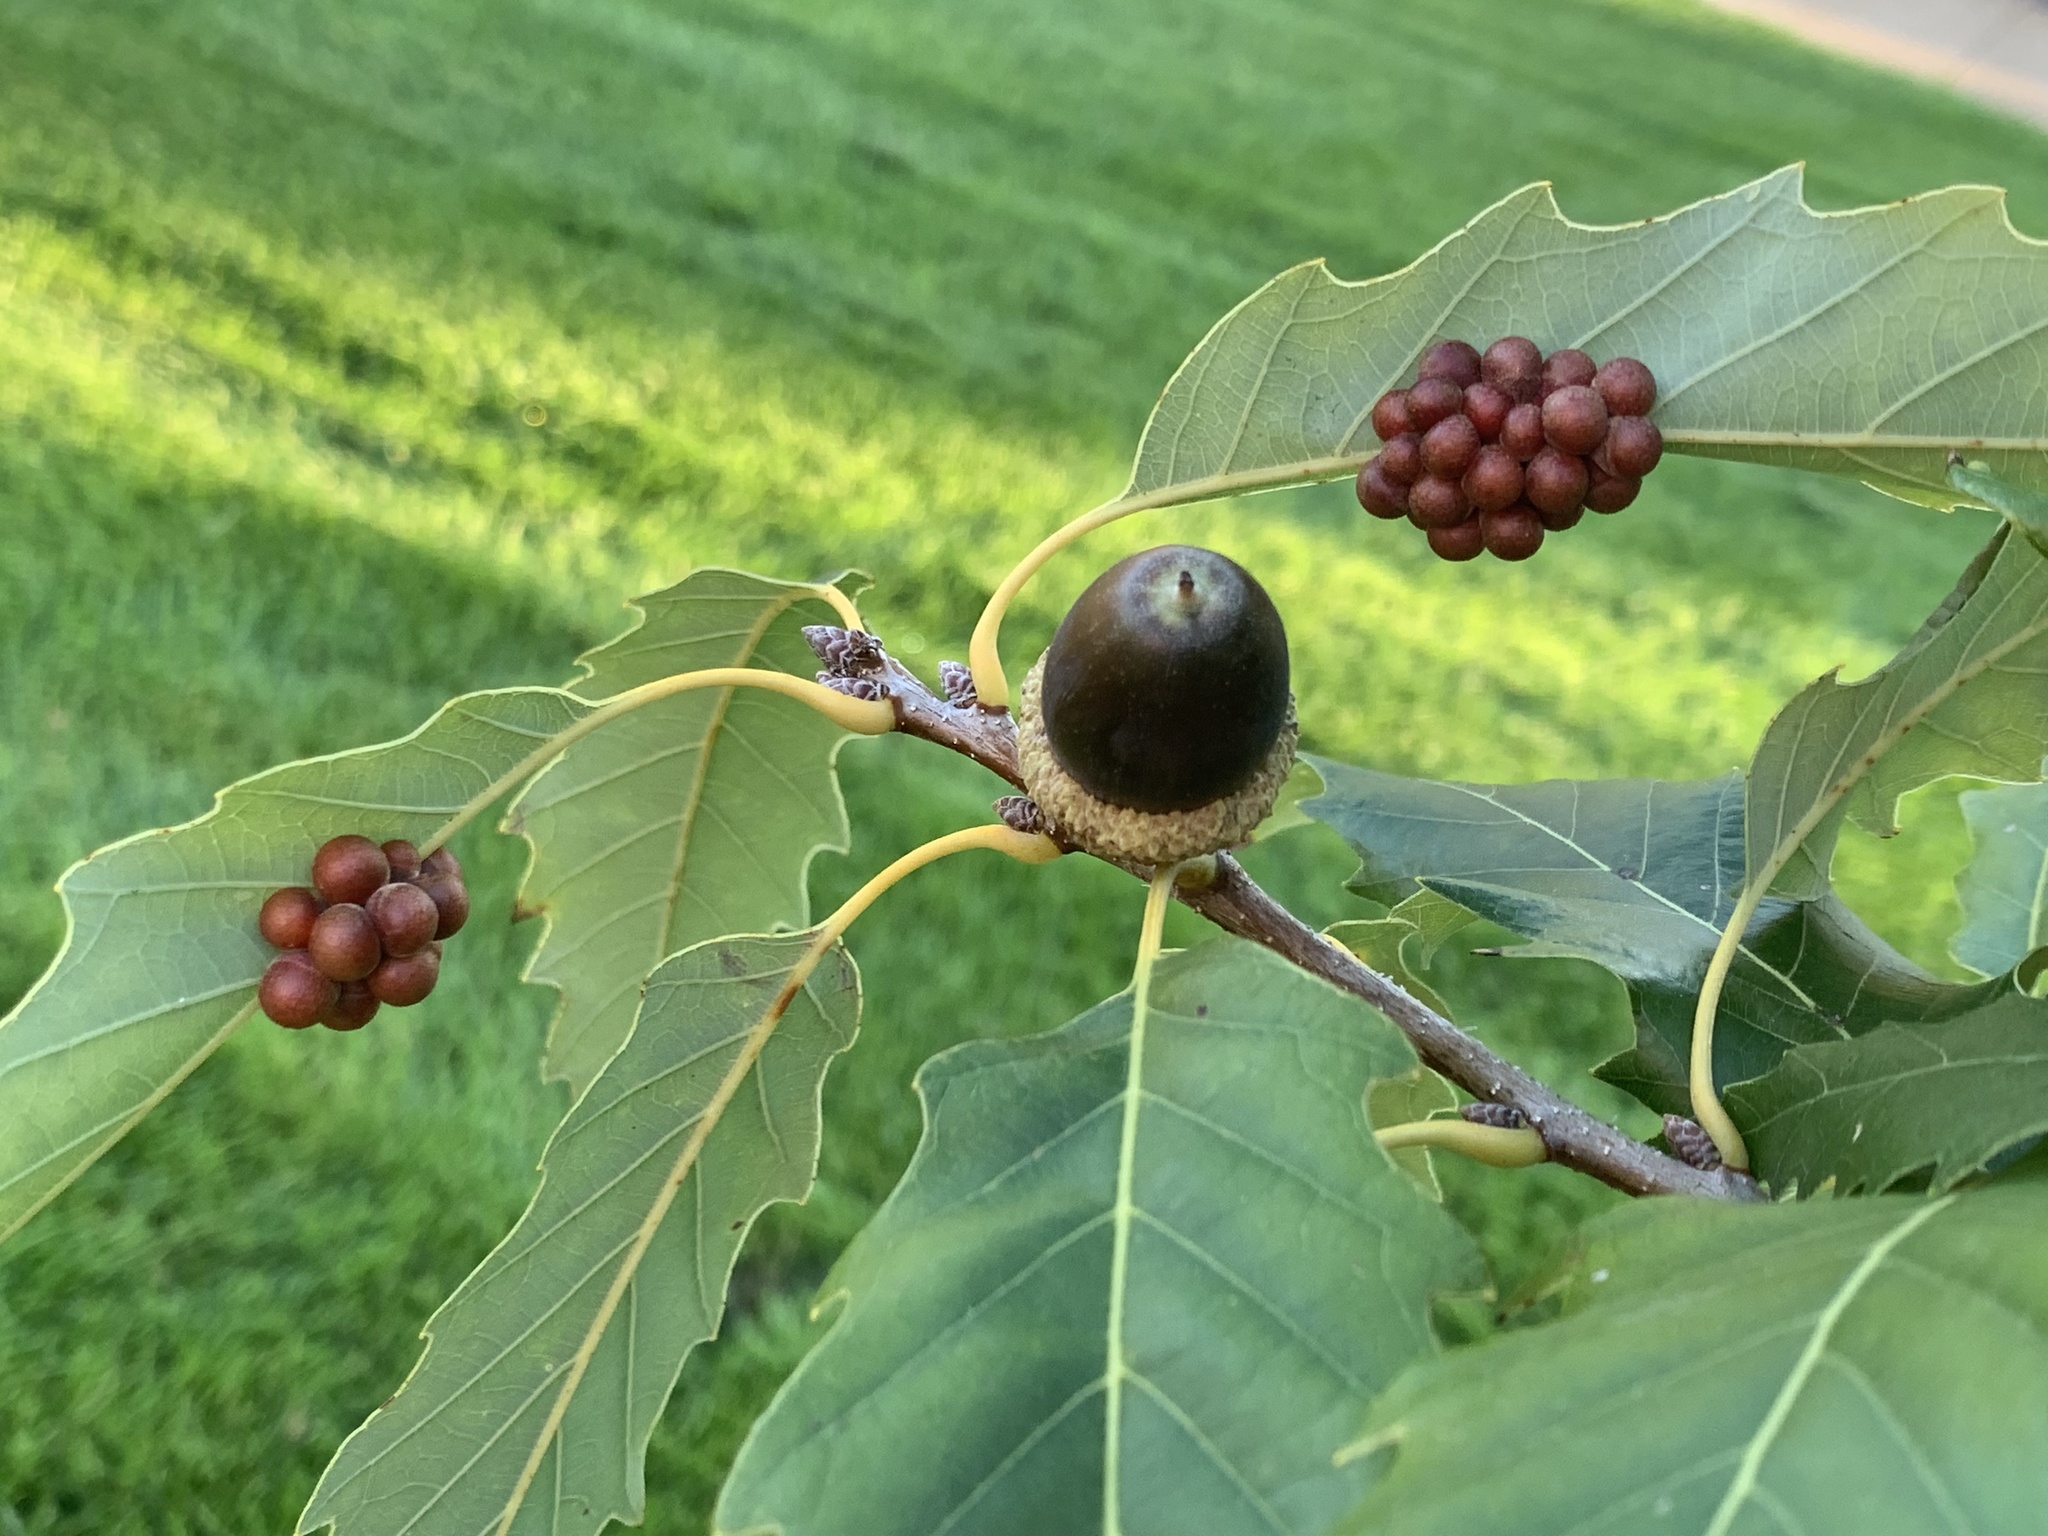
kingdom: Animalia
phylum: Arthropoda
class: Insecta
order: Hymenoptera
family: Cynipidae
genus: Andricus
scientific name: Andricus
